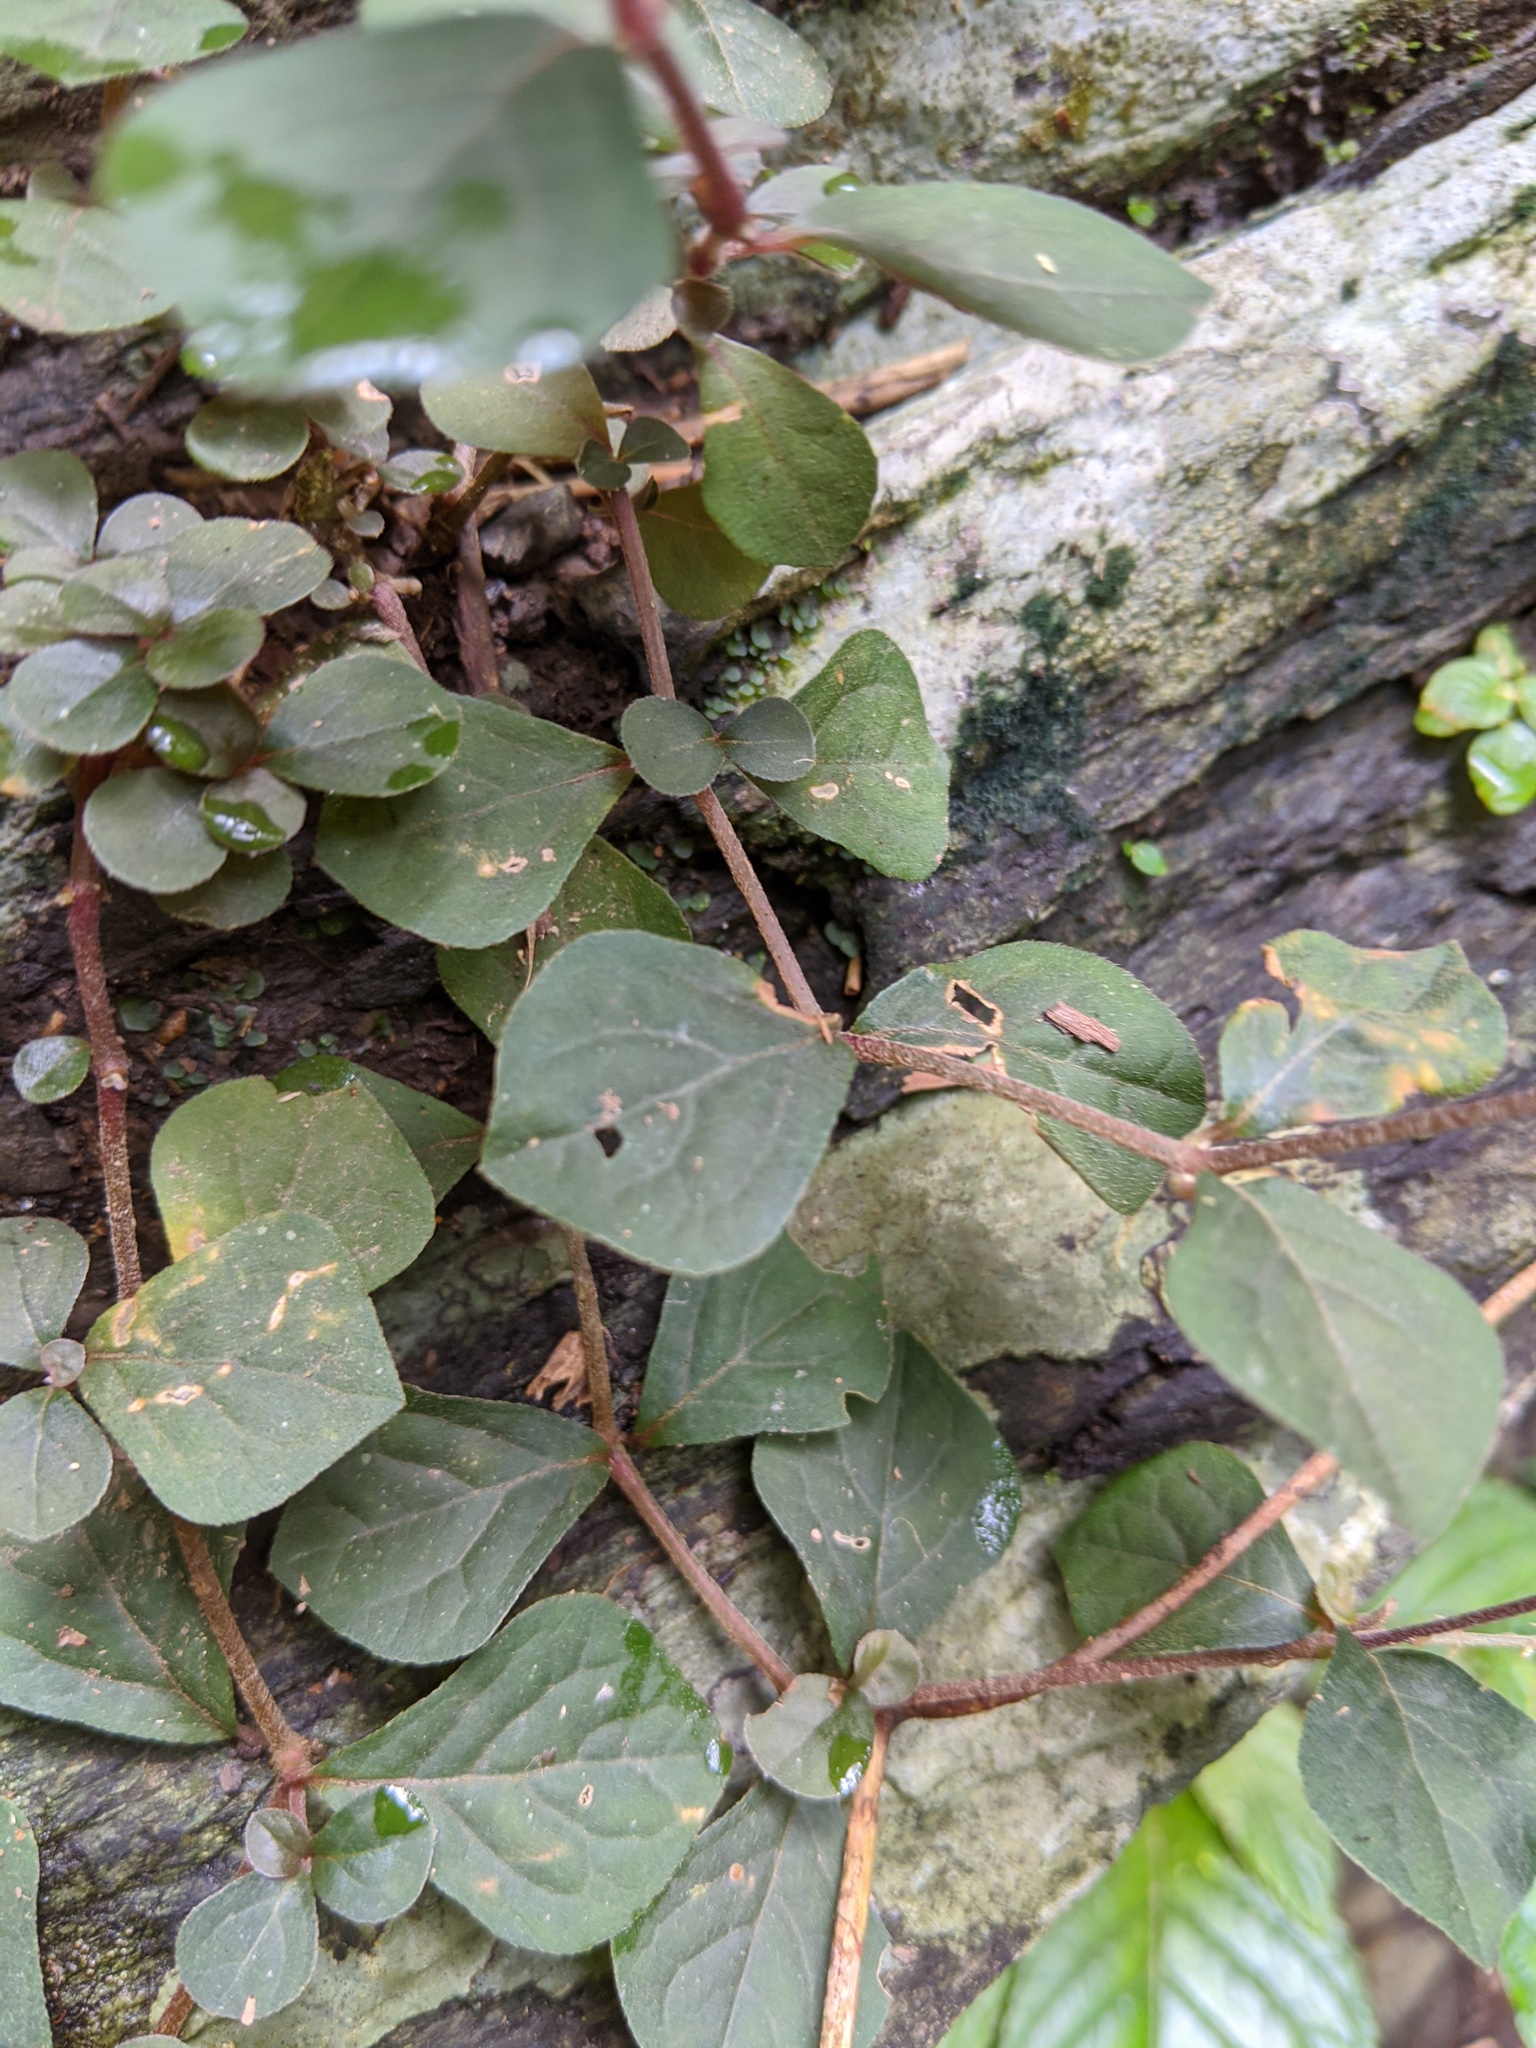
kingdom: Plantae
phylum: Tracheophyta
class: Magnoliopsida
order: Caryophyllales
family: Amaranthaceae
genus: Cyathula
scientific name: Cyathula prostrata
